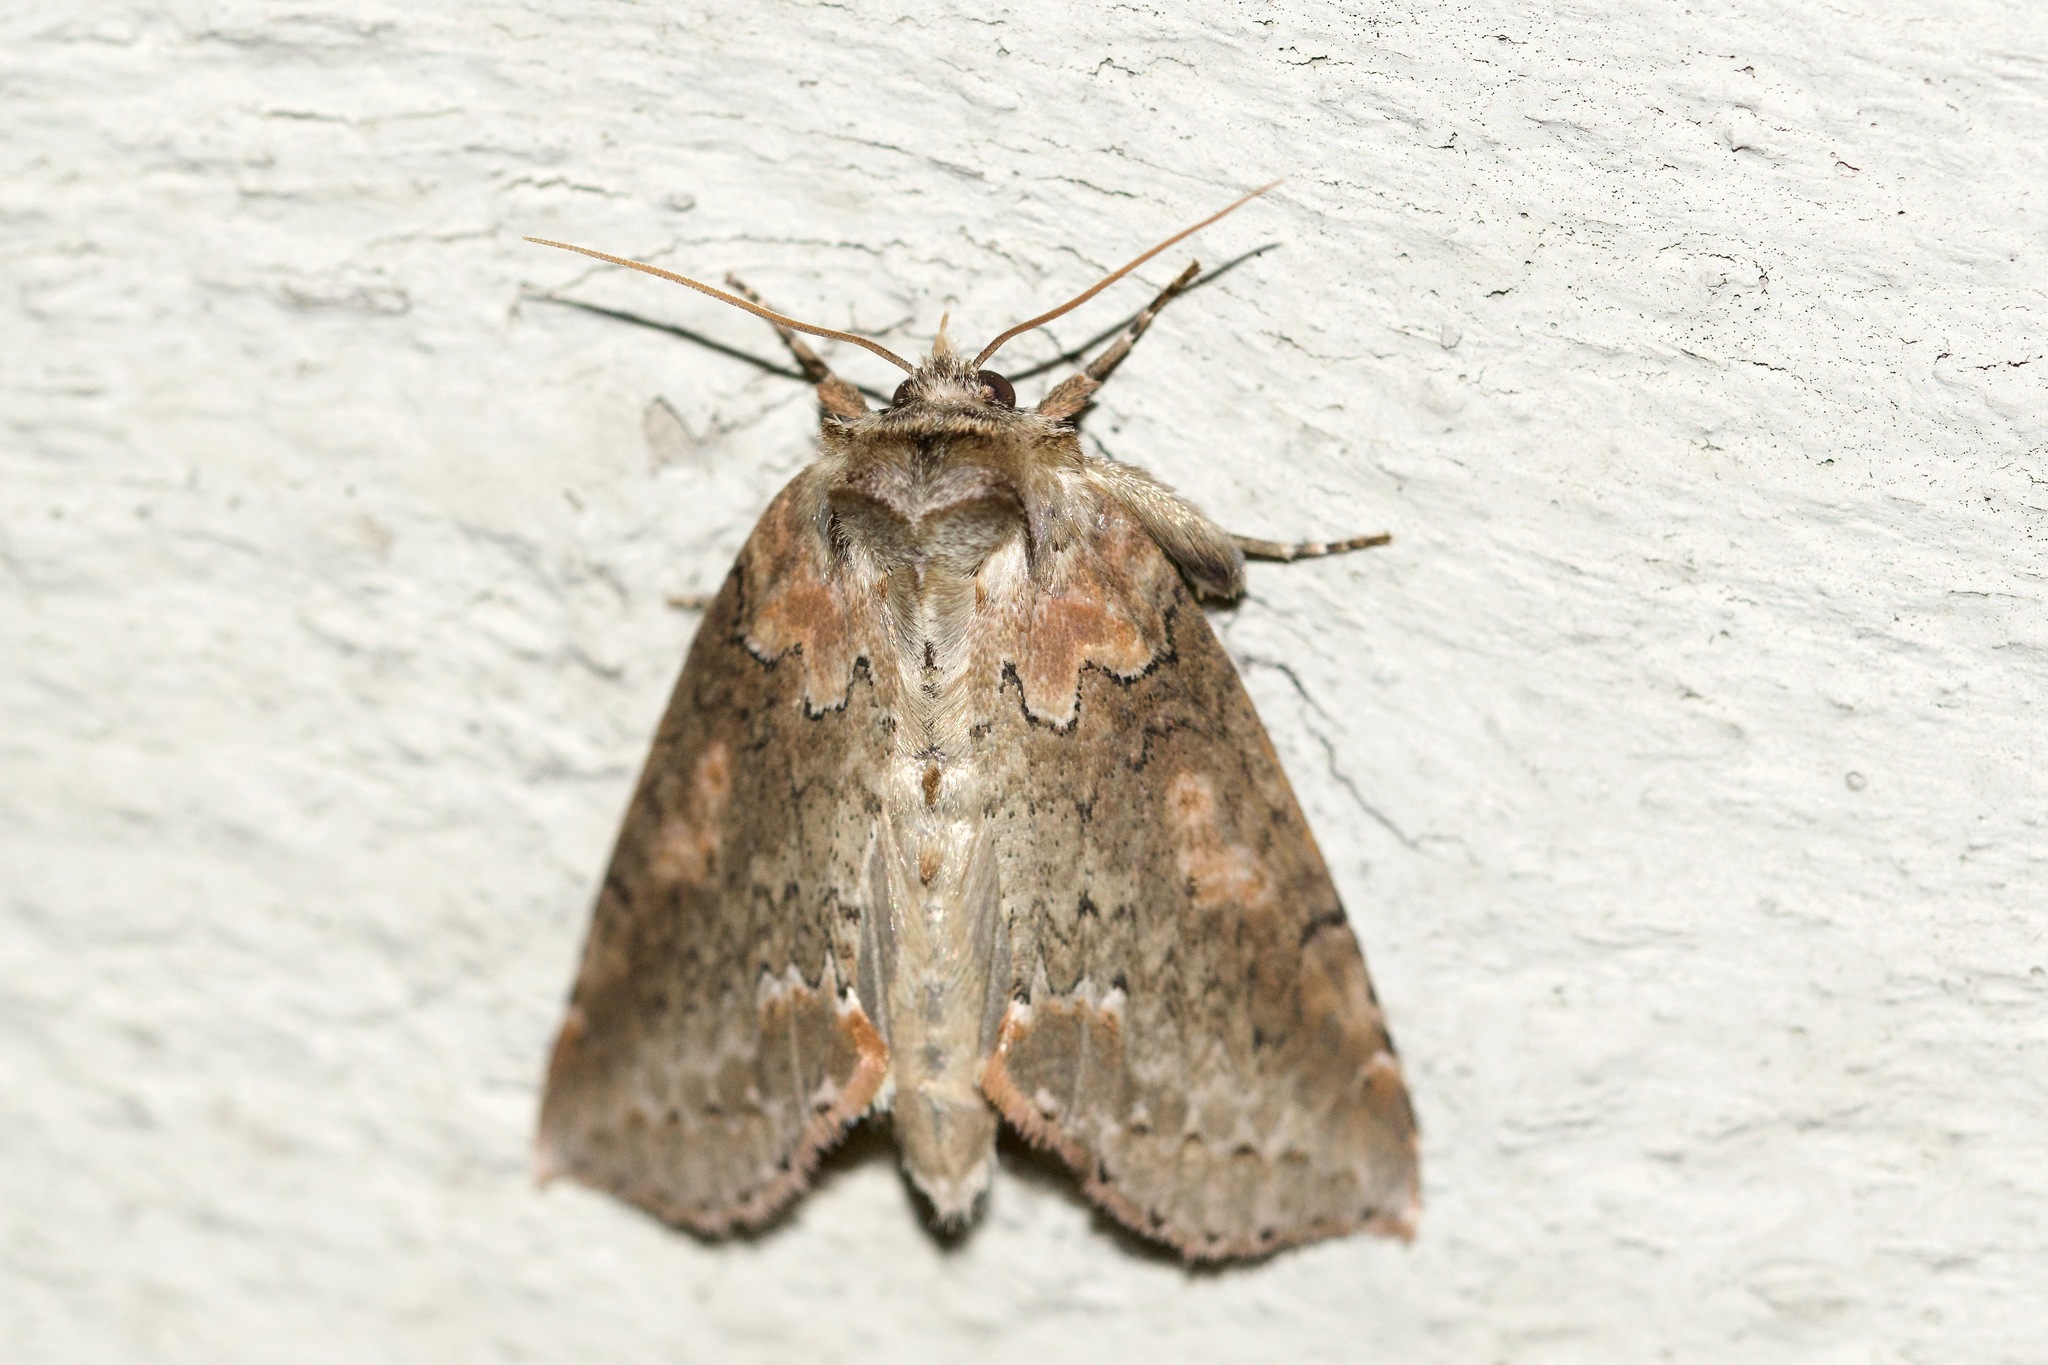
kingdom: Animalia
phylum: Arthropoda
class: Insecta
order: Lepidoptera
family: Drepanidae
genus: Pseudothyatira
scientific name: Pseudothyatira cymatophoroides
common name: Tufted thyatirid moth
